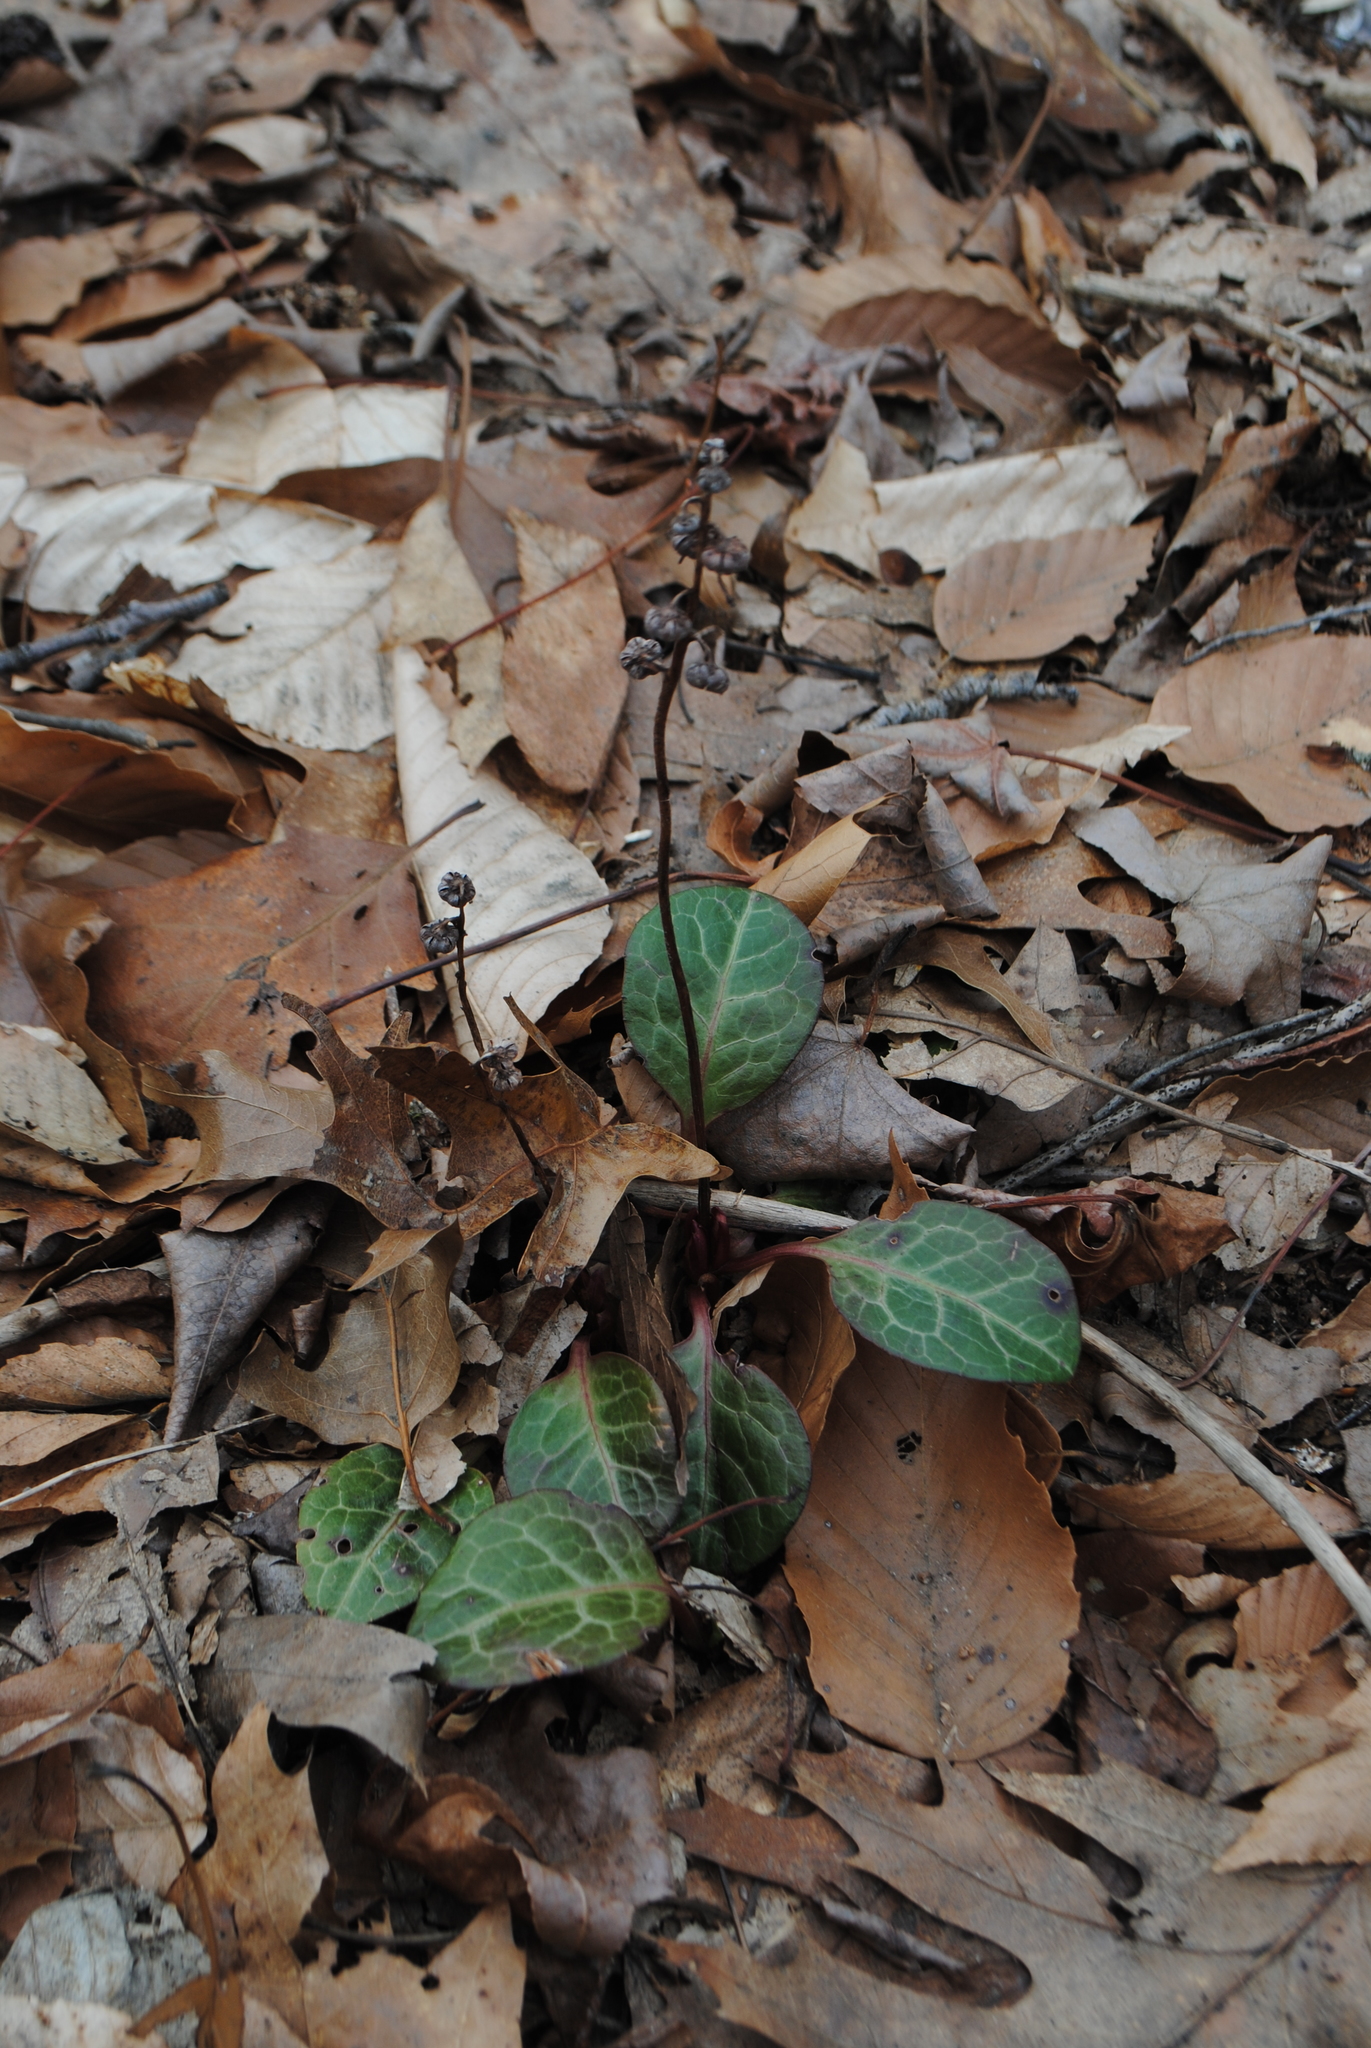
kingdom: Plantae
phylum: Tracheophyta
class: Magnoliopsida
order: Ericales
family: Ericaceae
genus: Pyrola
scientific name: Pyrola americana
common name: American wintergreen
